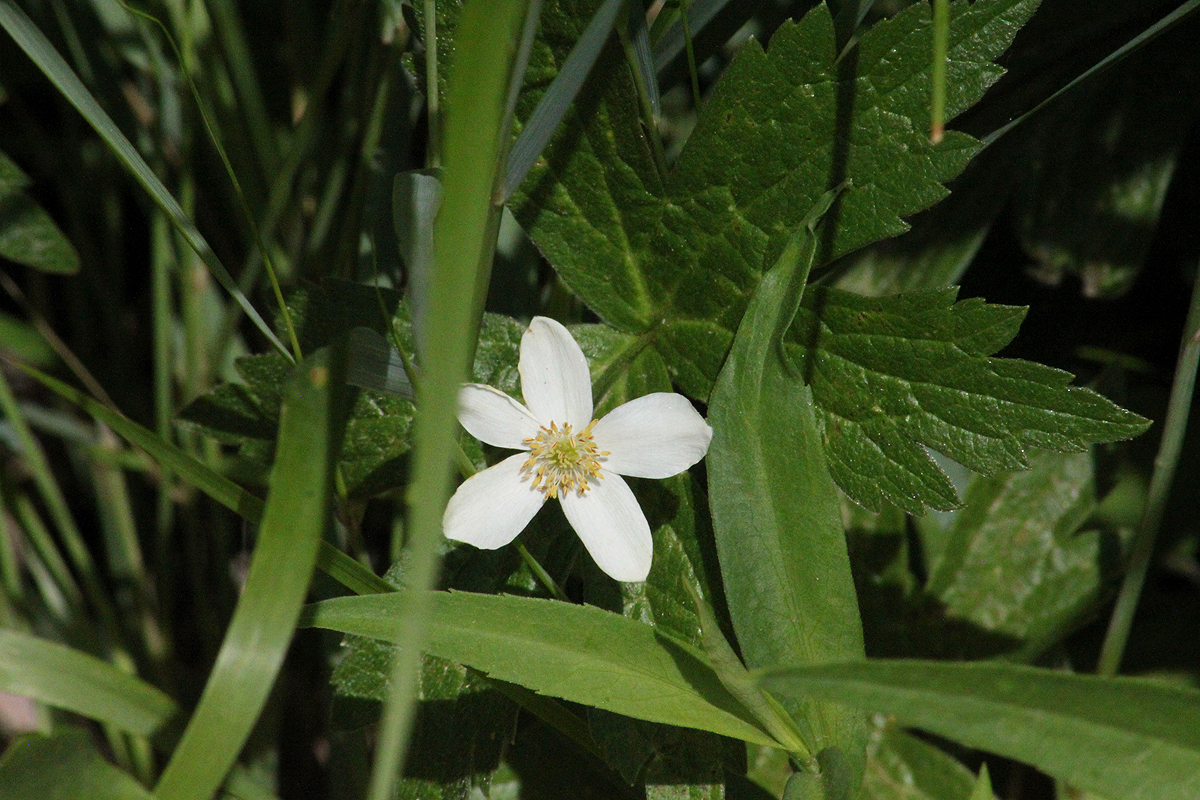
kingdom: Plantae
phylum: Tracheophyta
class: Magnoliopsida
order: Ranunculales
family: Ranunculaceae
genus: Anemonastrum
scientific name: Anemonastrum canadense
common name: Canada anemone
